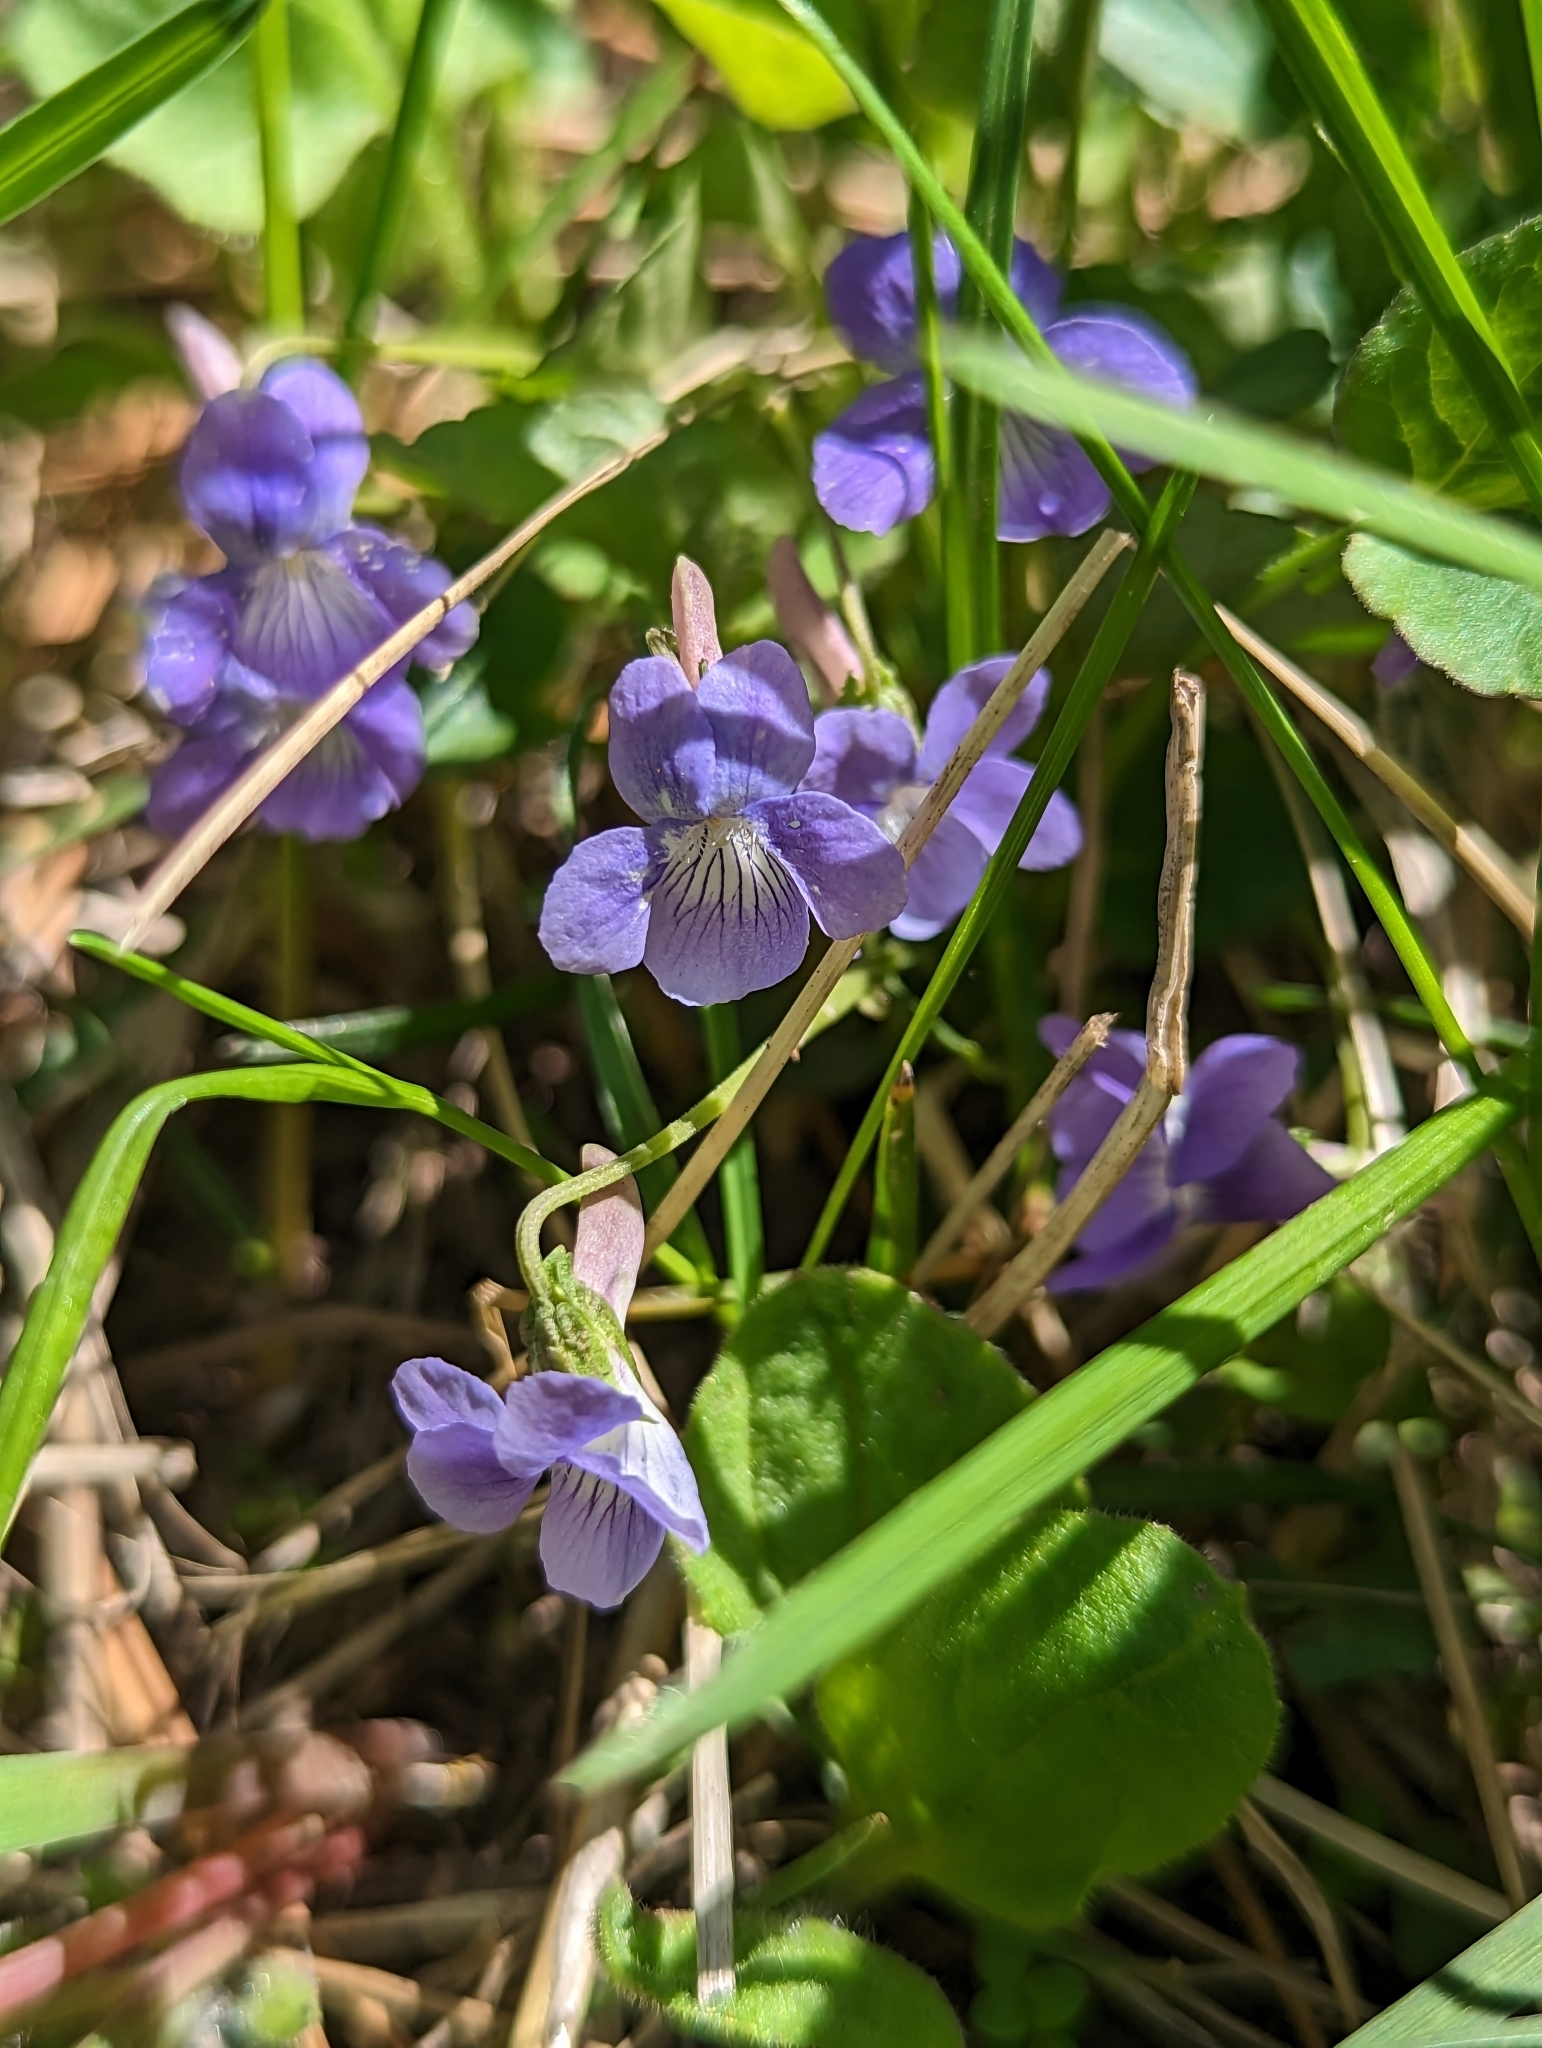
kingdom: Plantae
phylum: Tracheophyta
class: Magnoliopsida
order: Malpighiales
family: Violaceae
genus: Viola
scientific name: Viola adunca
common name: Sand violet
